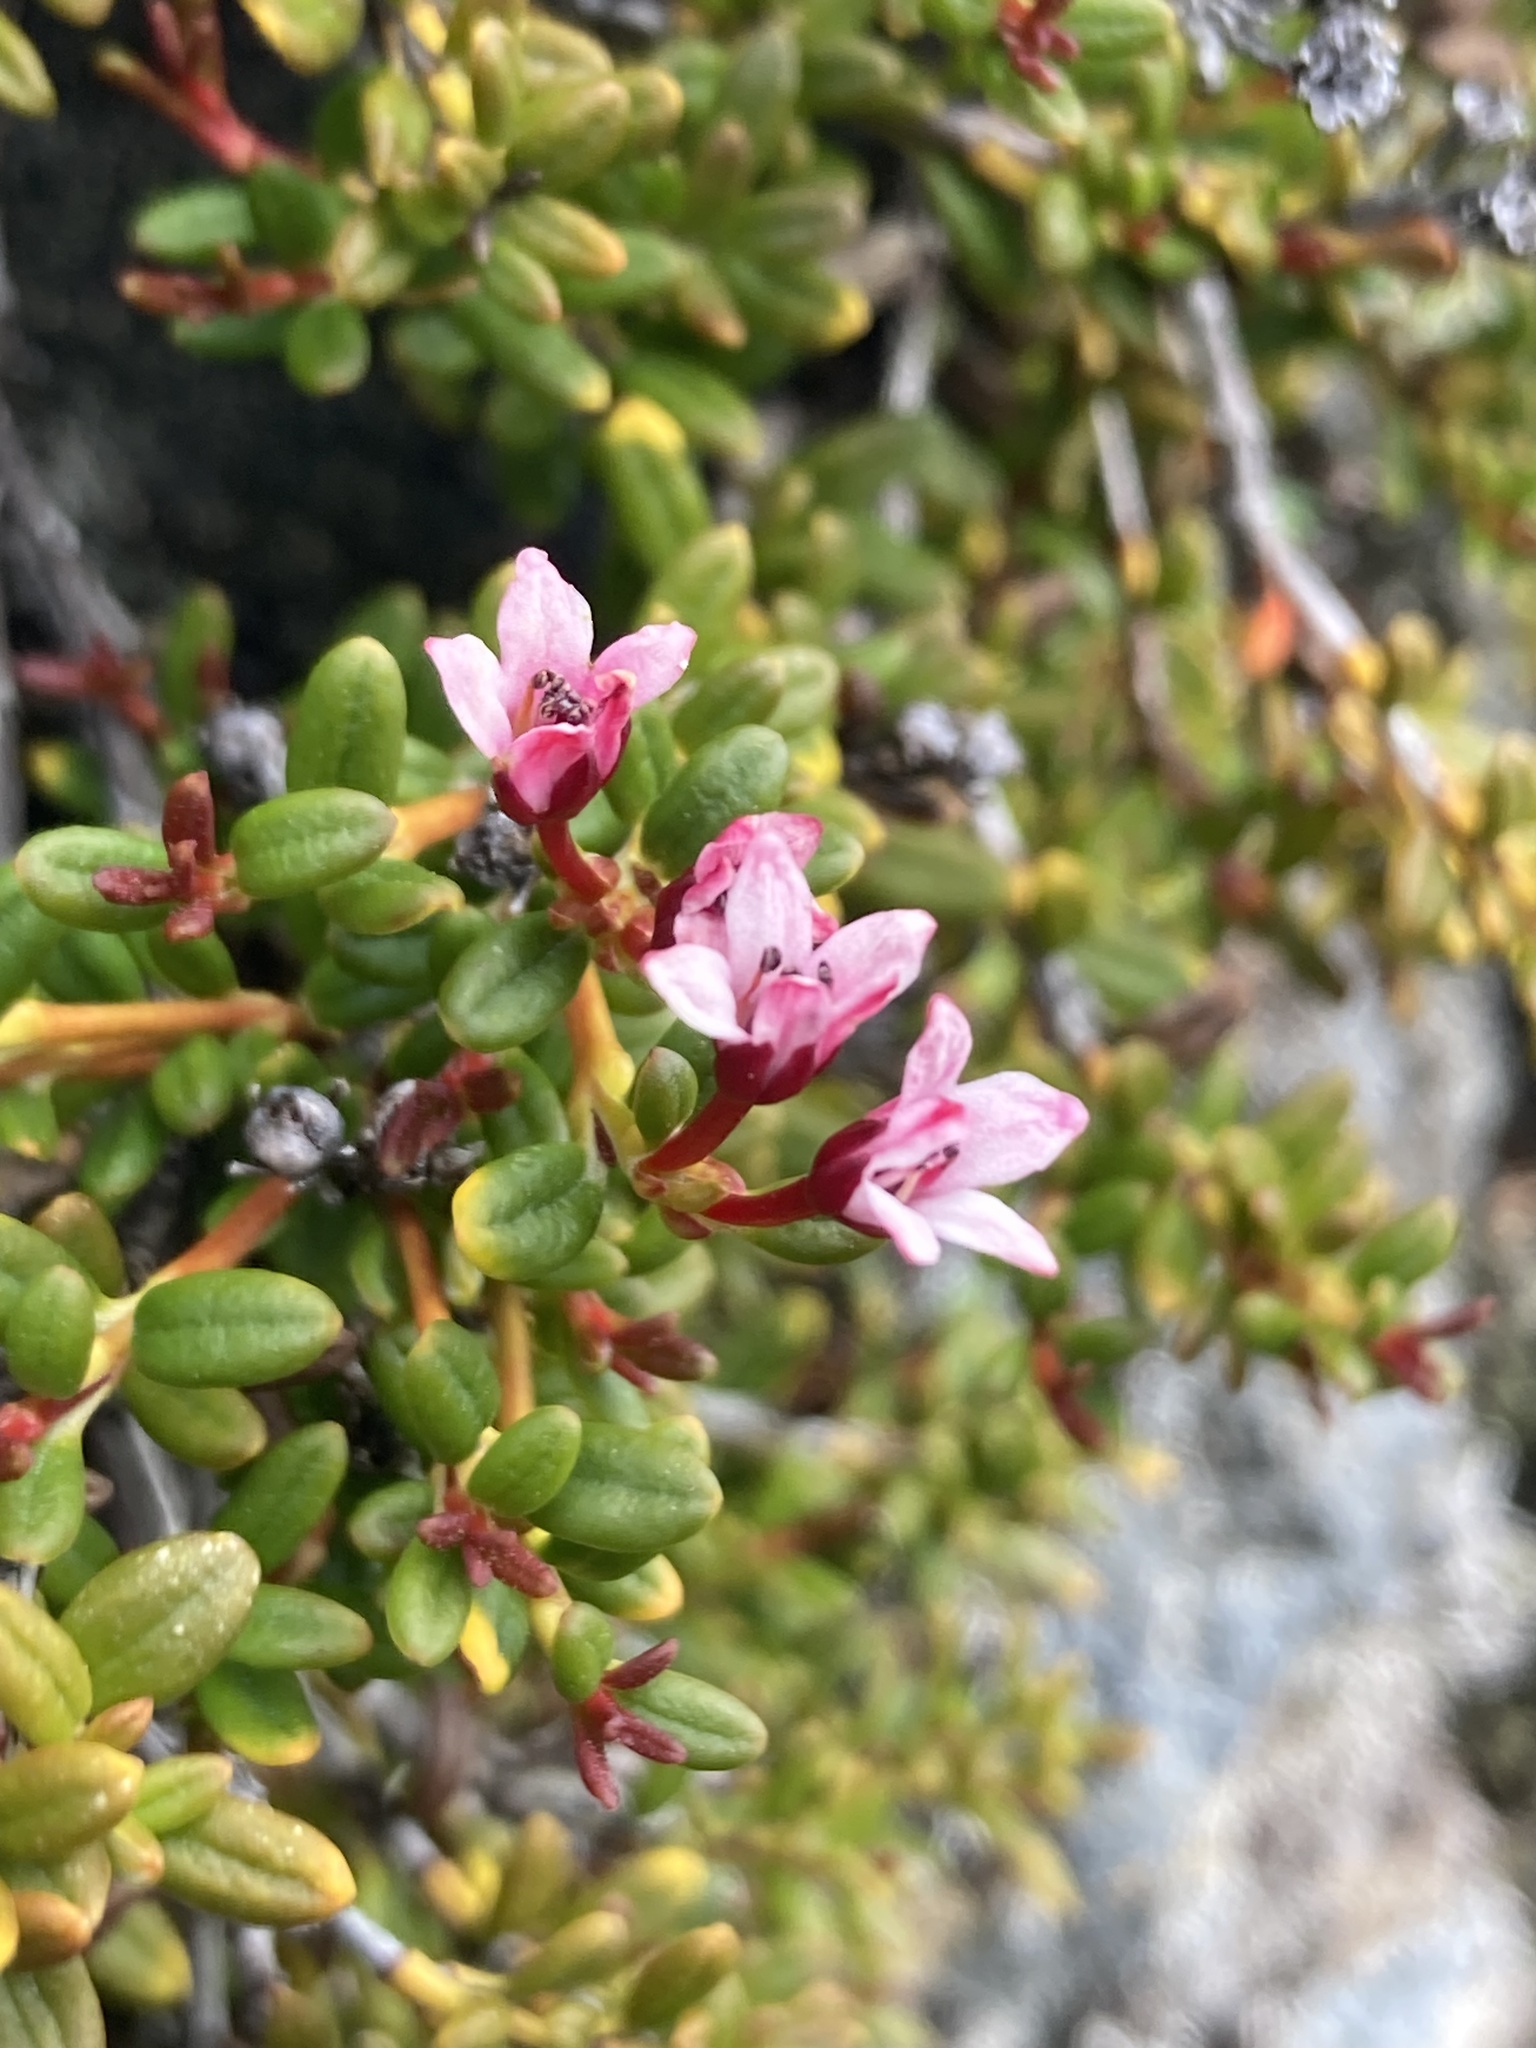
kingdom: Plantae
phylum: Tracheophyta
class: Magnoliopsida
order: Ericales
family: Ericaceae
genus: Kalmia
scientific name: Kalmia procumbens
